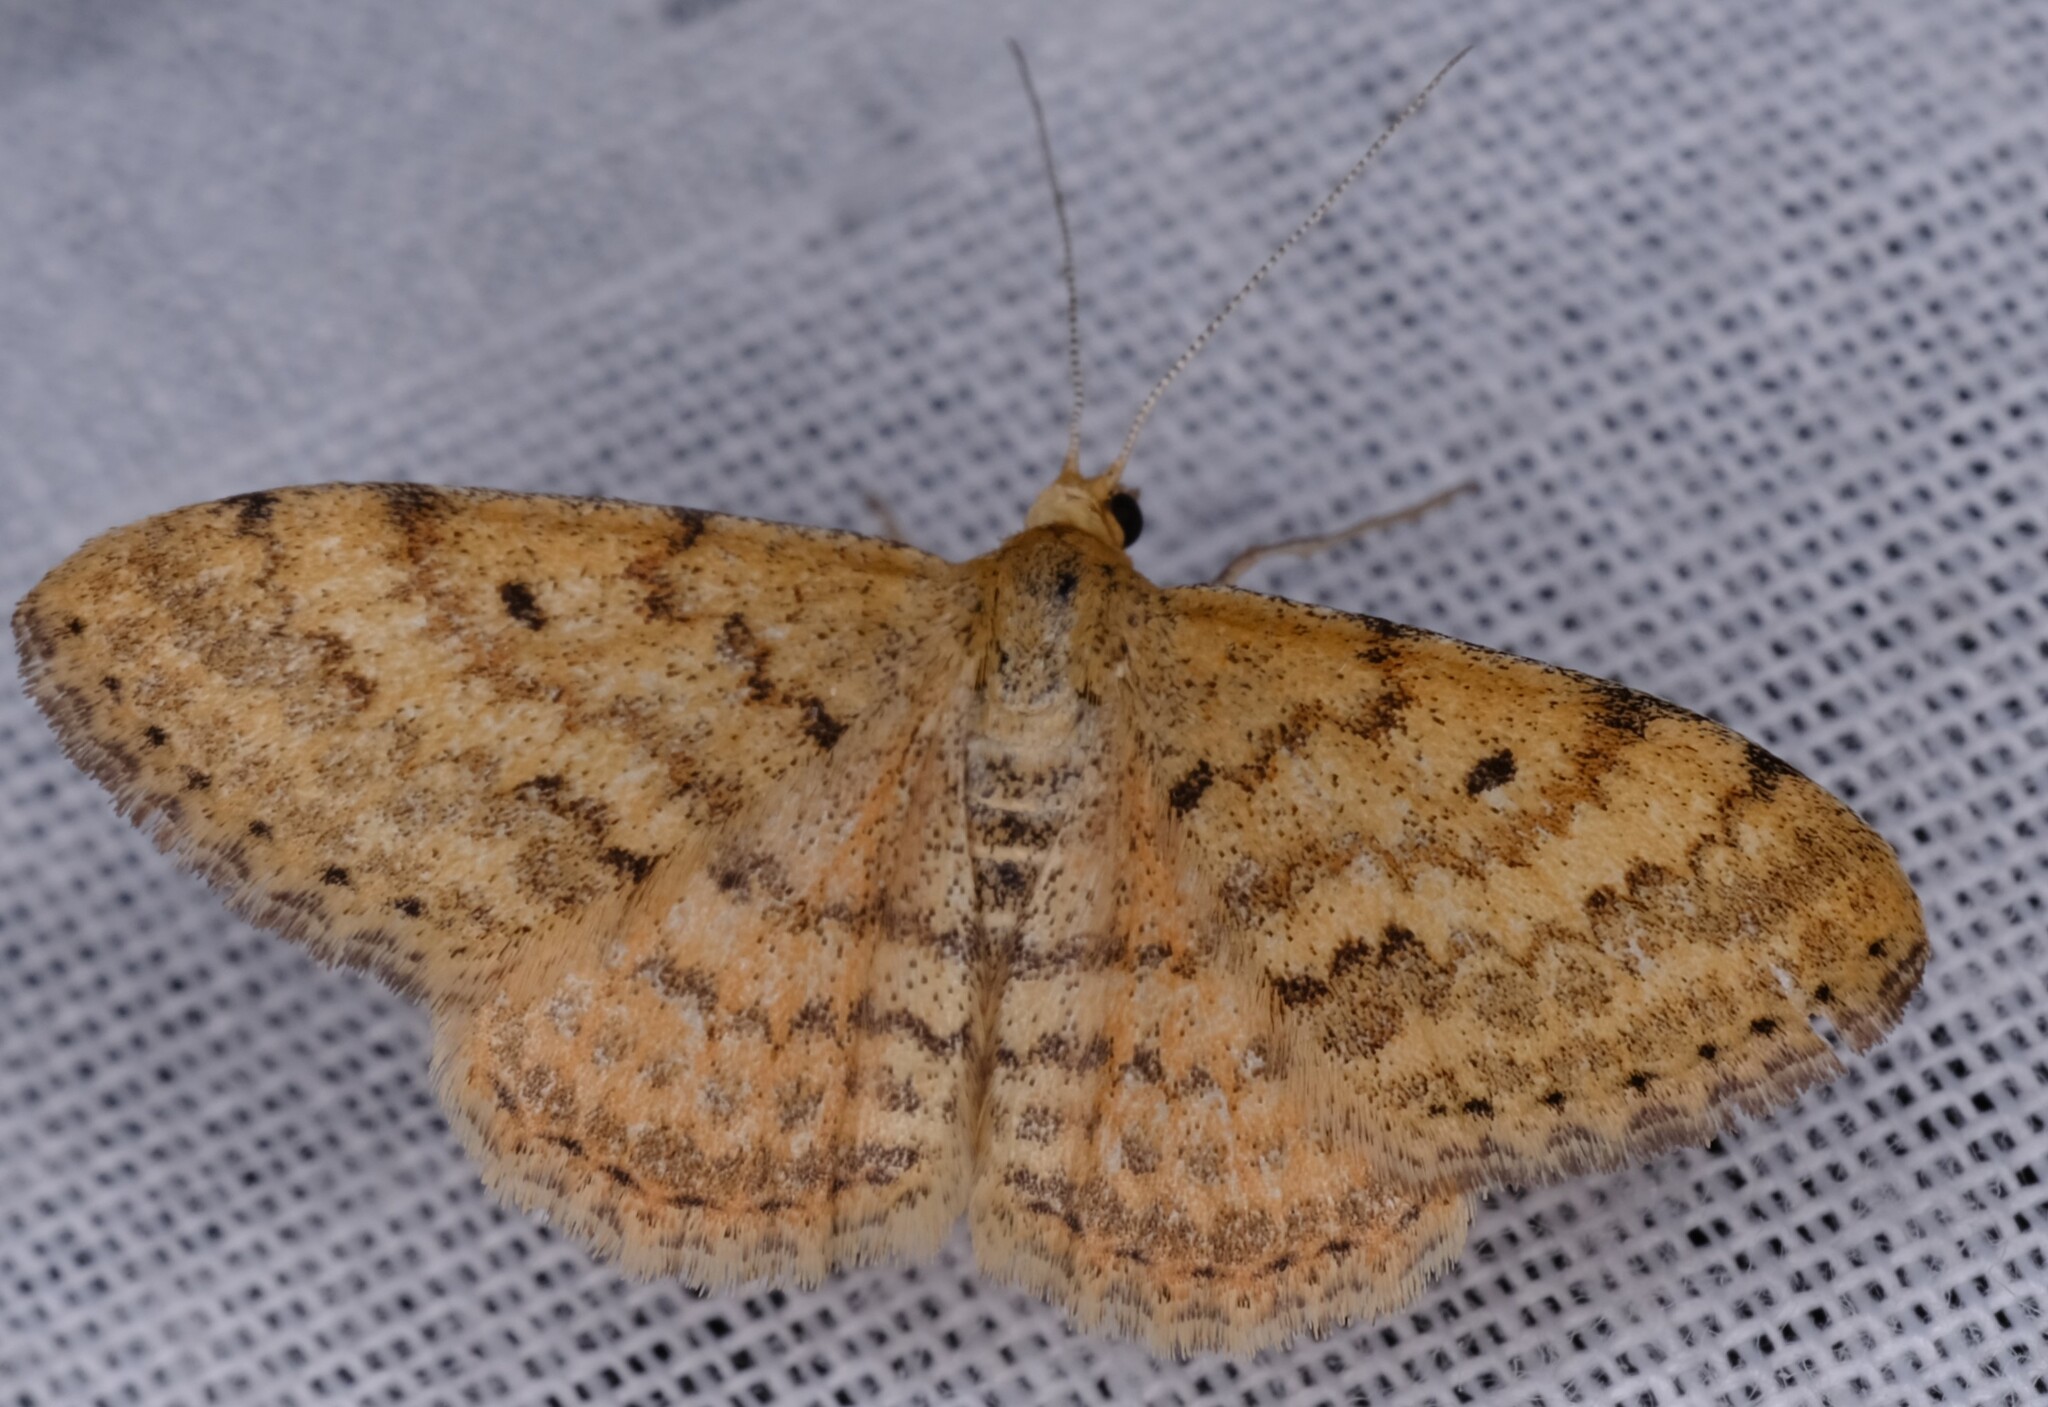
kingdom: Animalia
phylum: Arthropoda
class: Insecta
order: Lepidoptera
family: Geometridae
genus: Scopula
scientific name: Scopula rubraria
